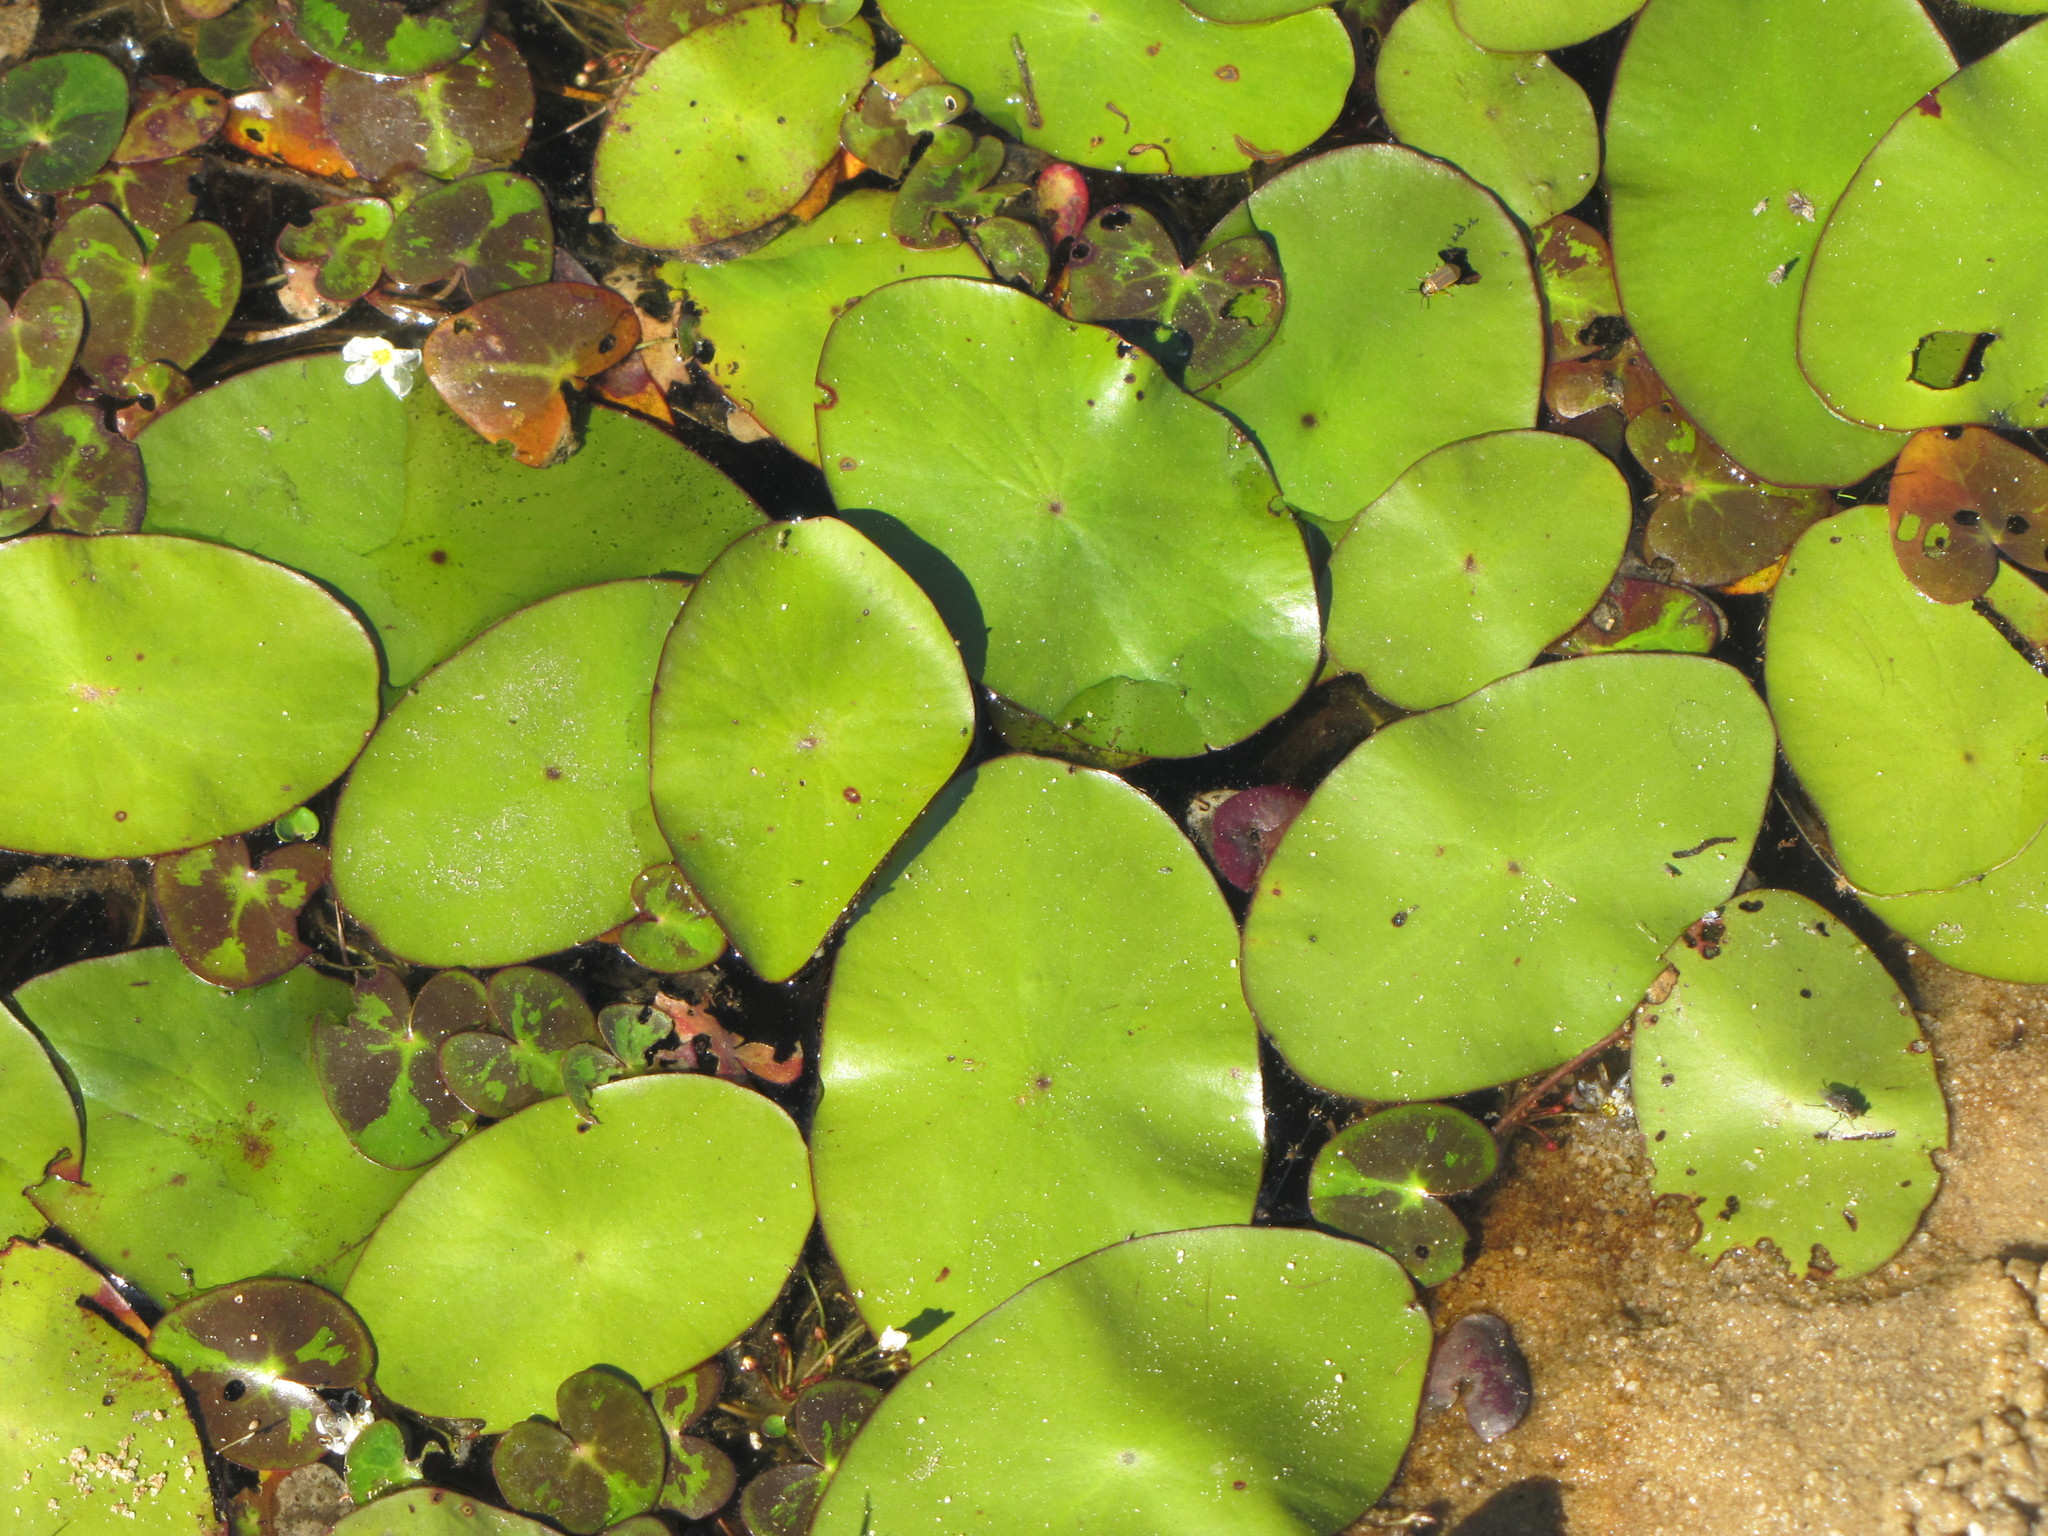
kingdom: Plantae
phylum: Tracheophyta
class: Magnoliopsida
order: Nymphaeales
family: Cabombaceae
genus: Brasenia
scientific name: Brasenia schreberi
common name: Water-shield
